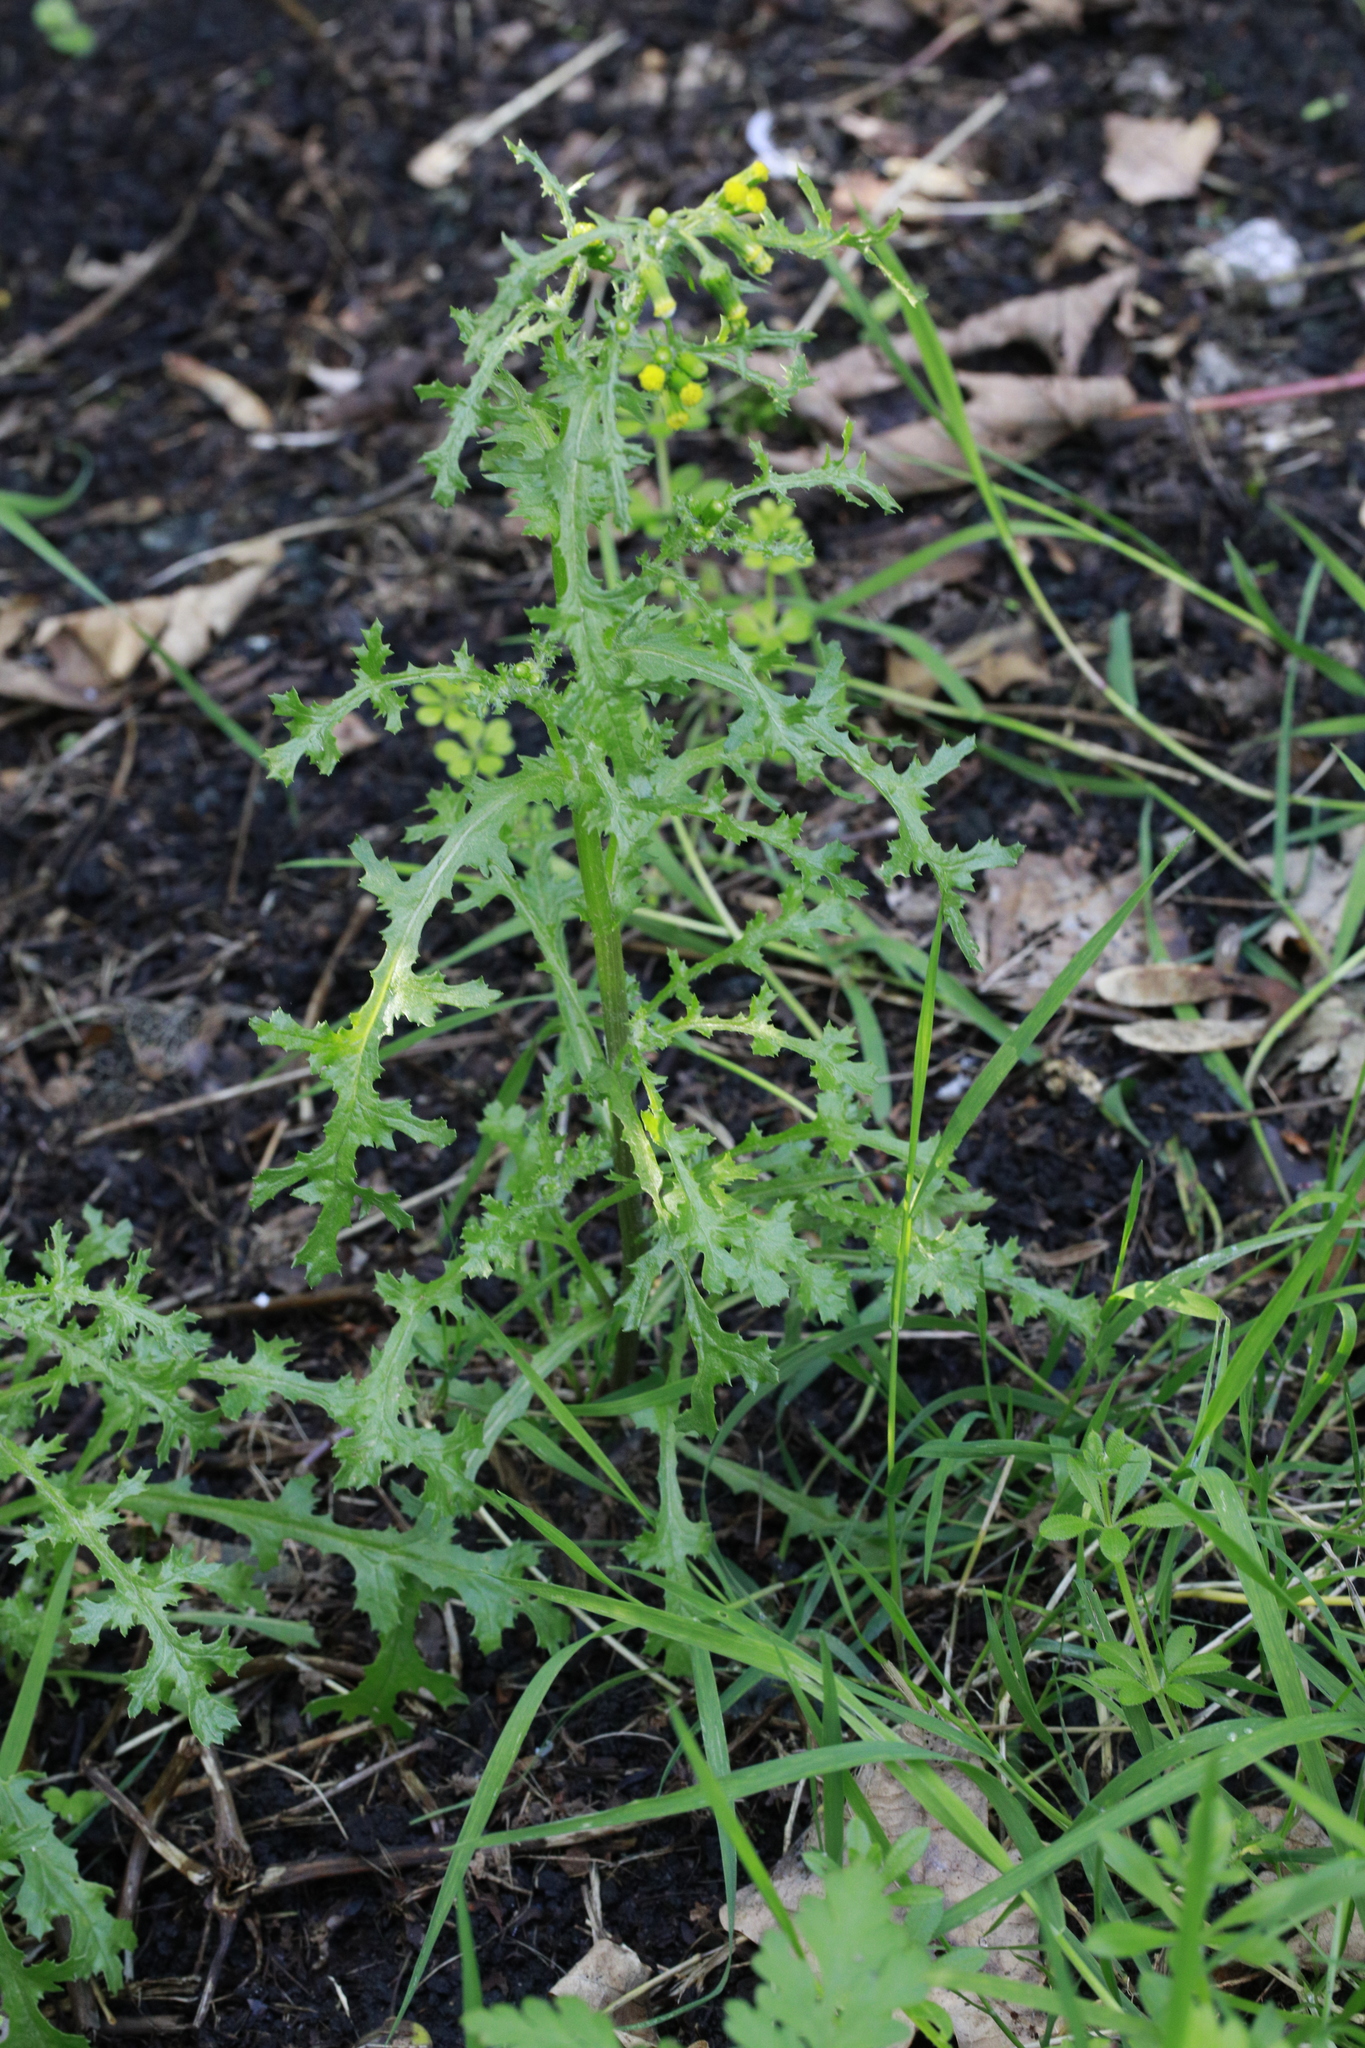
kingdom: Plantae
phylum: Tracheophyta
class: Magnoliopsida
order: Asterales
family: Asteraceae
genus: Senecio
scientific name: Senecio vulgaris
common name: Old-man-in-the-spring
